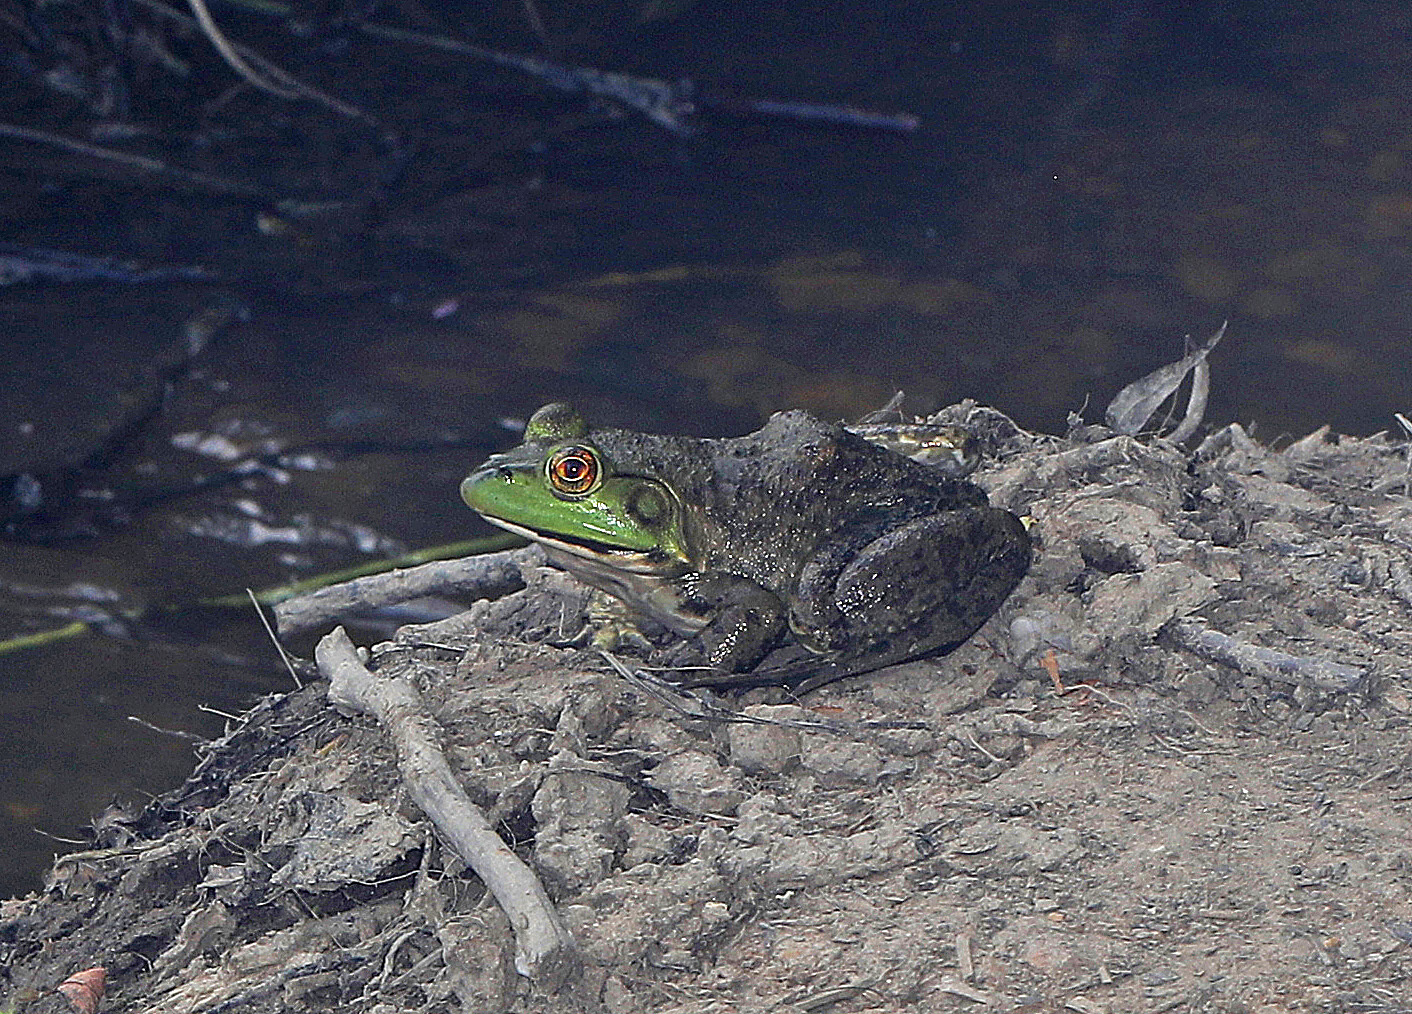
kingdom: Animalia
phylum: Chordata
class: Amphibia
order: Anura
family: Ranidae
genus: Lithobates
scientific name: Lithobates catesbeianus
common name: American bullfrog
